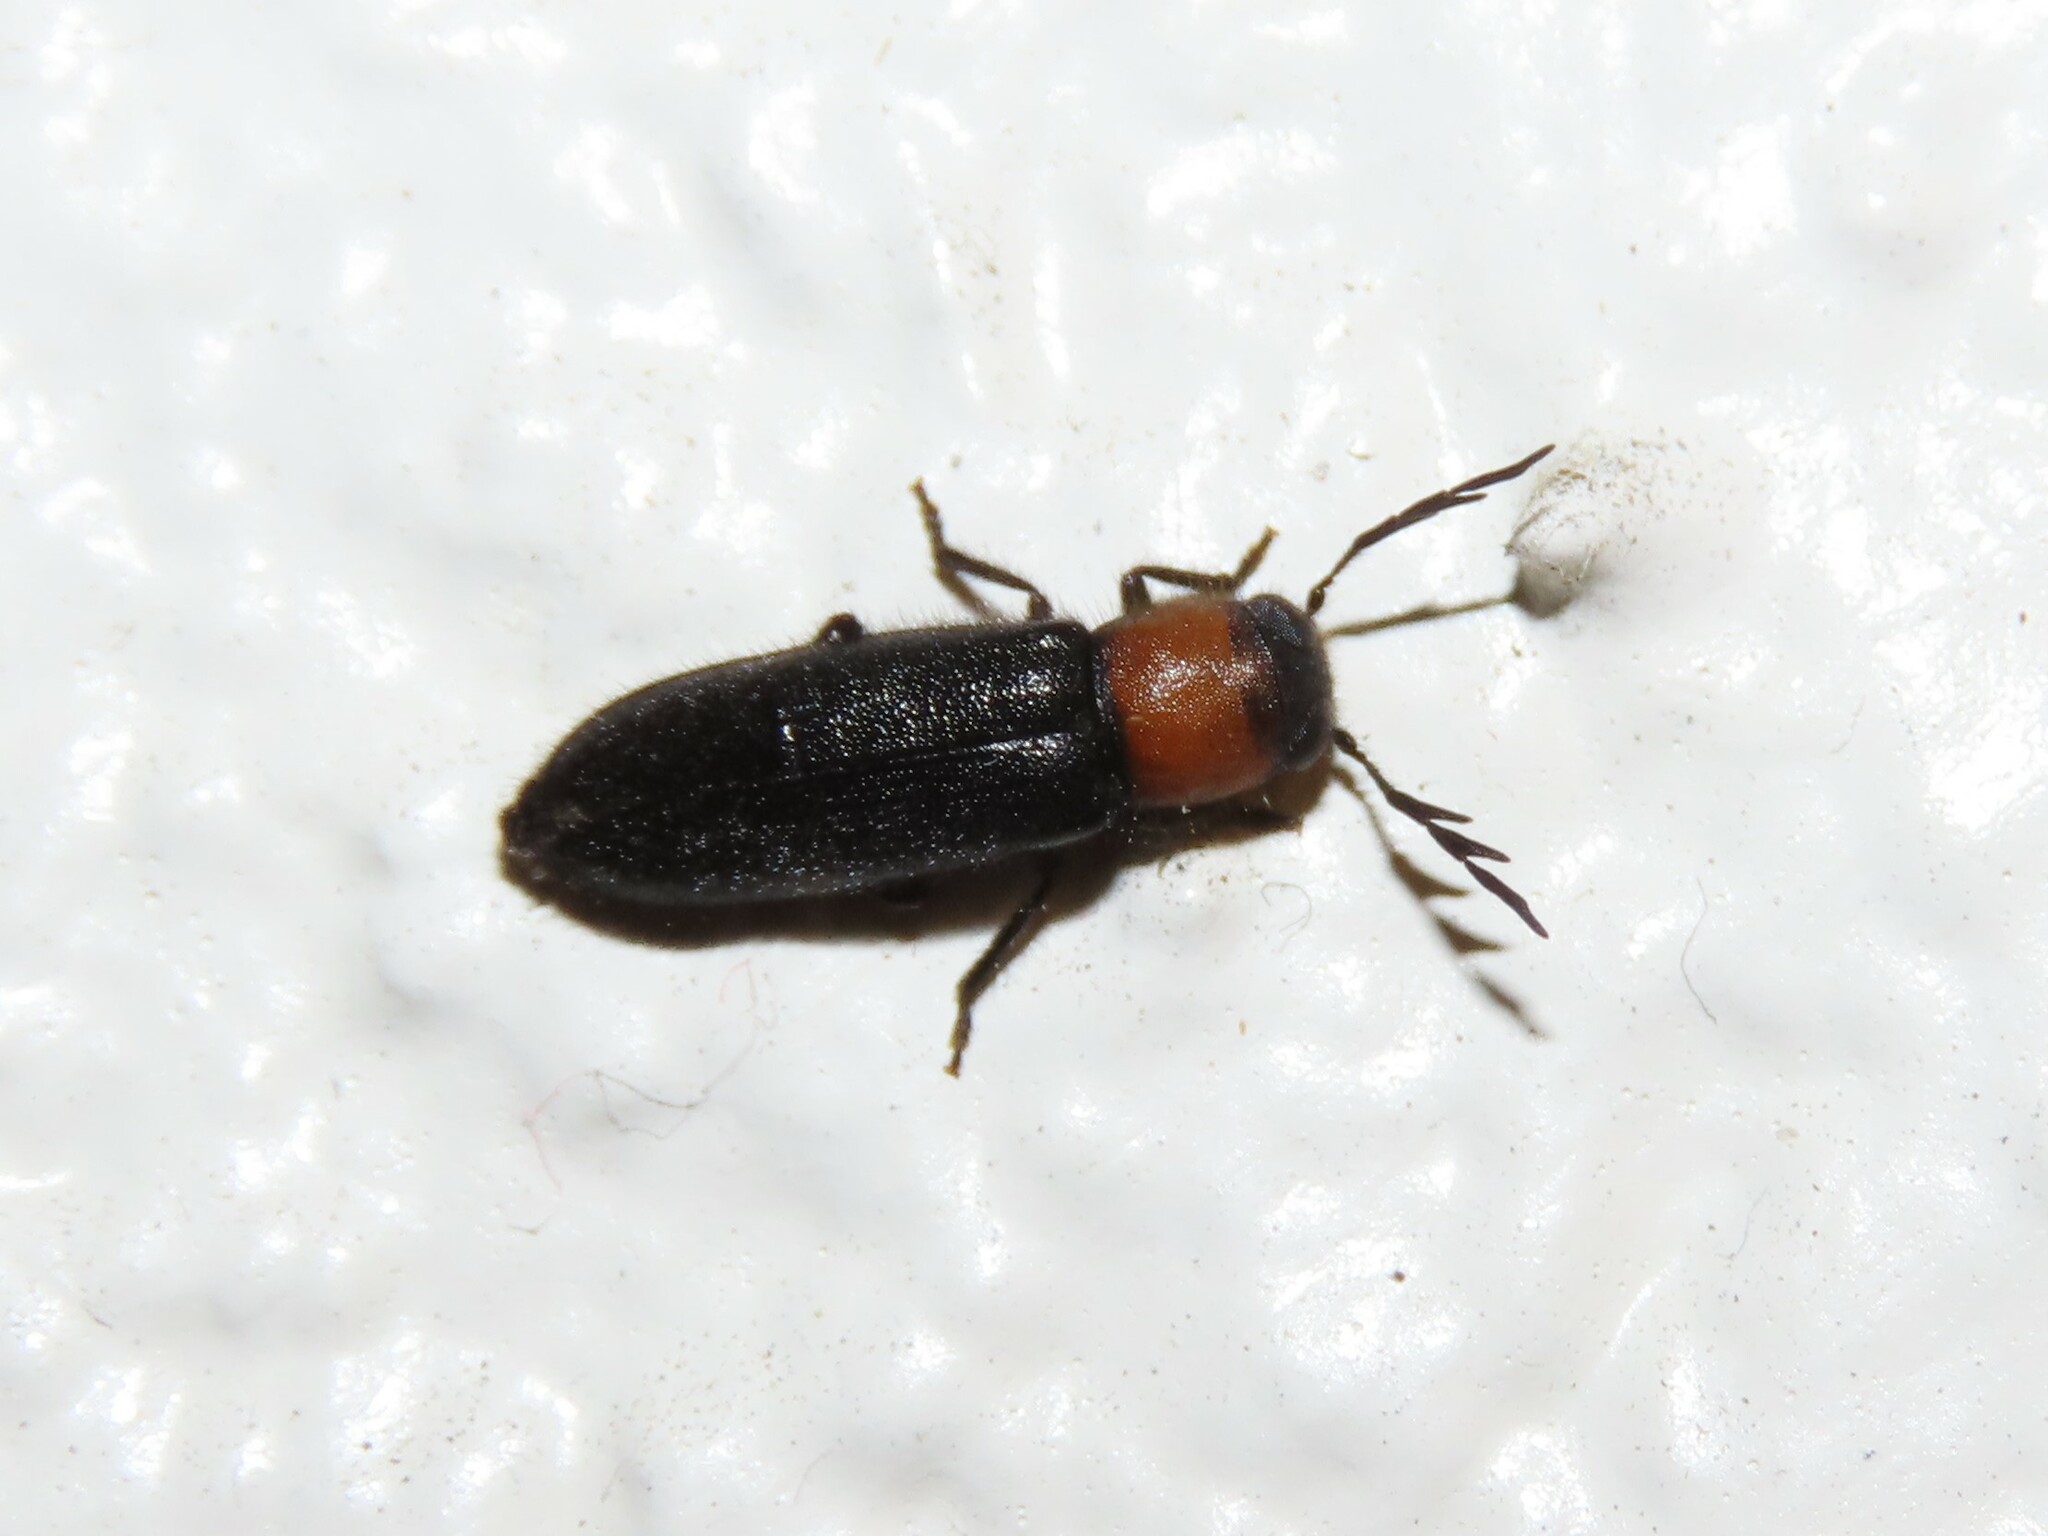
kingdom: Animalia
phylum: Arthropoda
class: Insecta
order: Coleoptera
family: Cleridae
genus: Neorthopleura
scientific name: Neorthopleura thoracica
